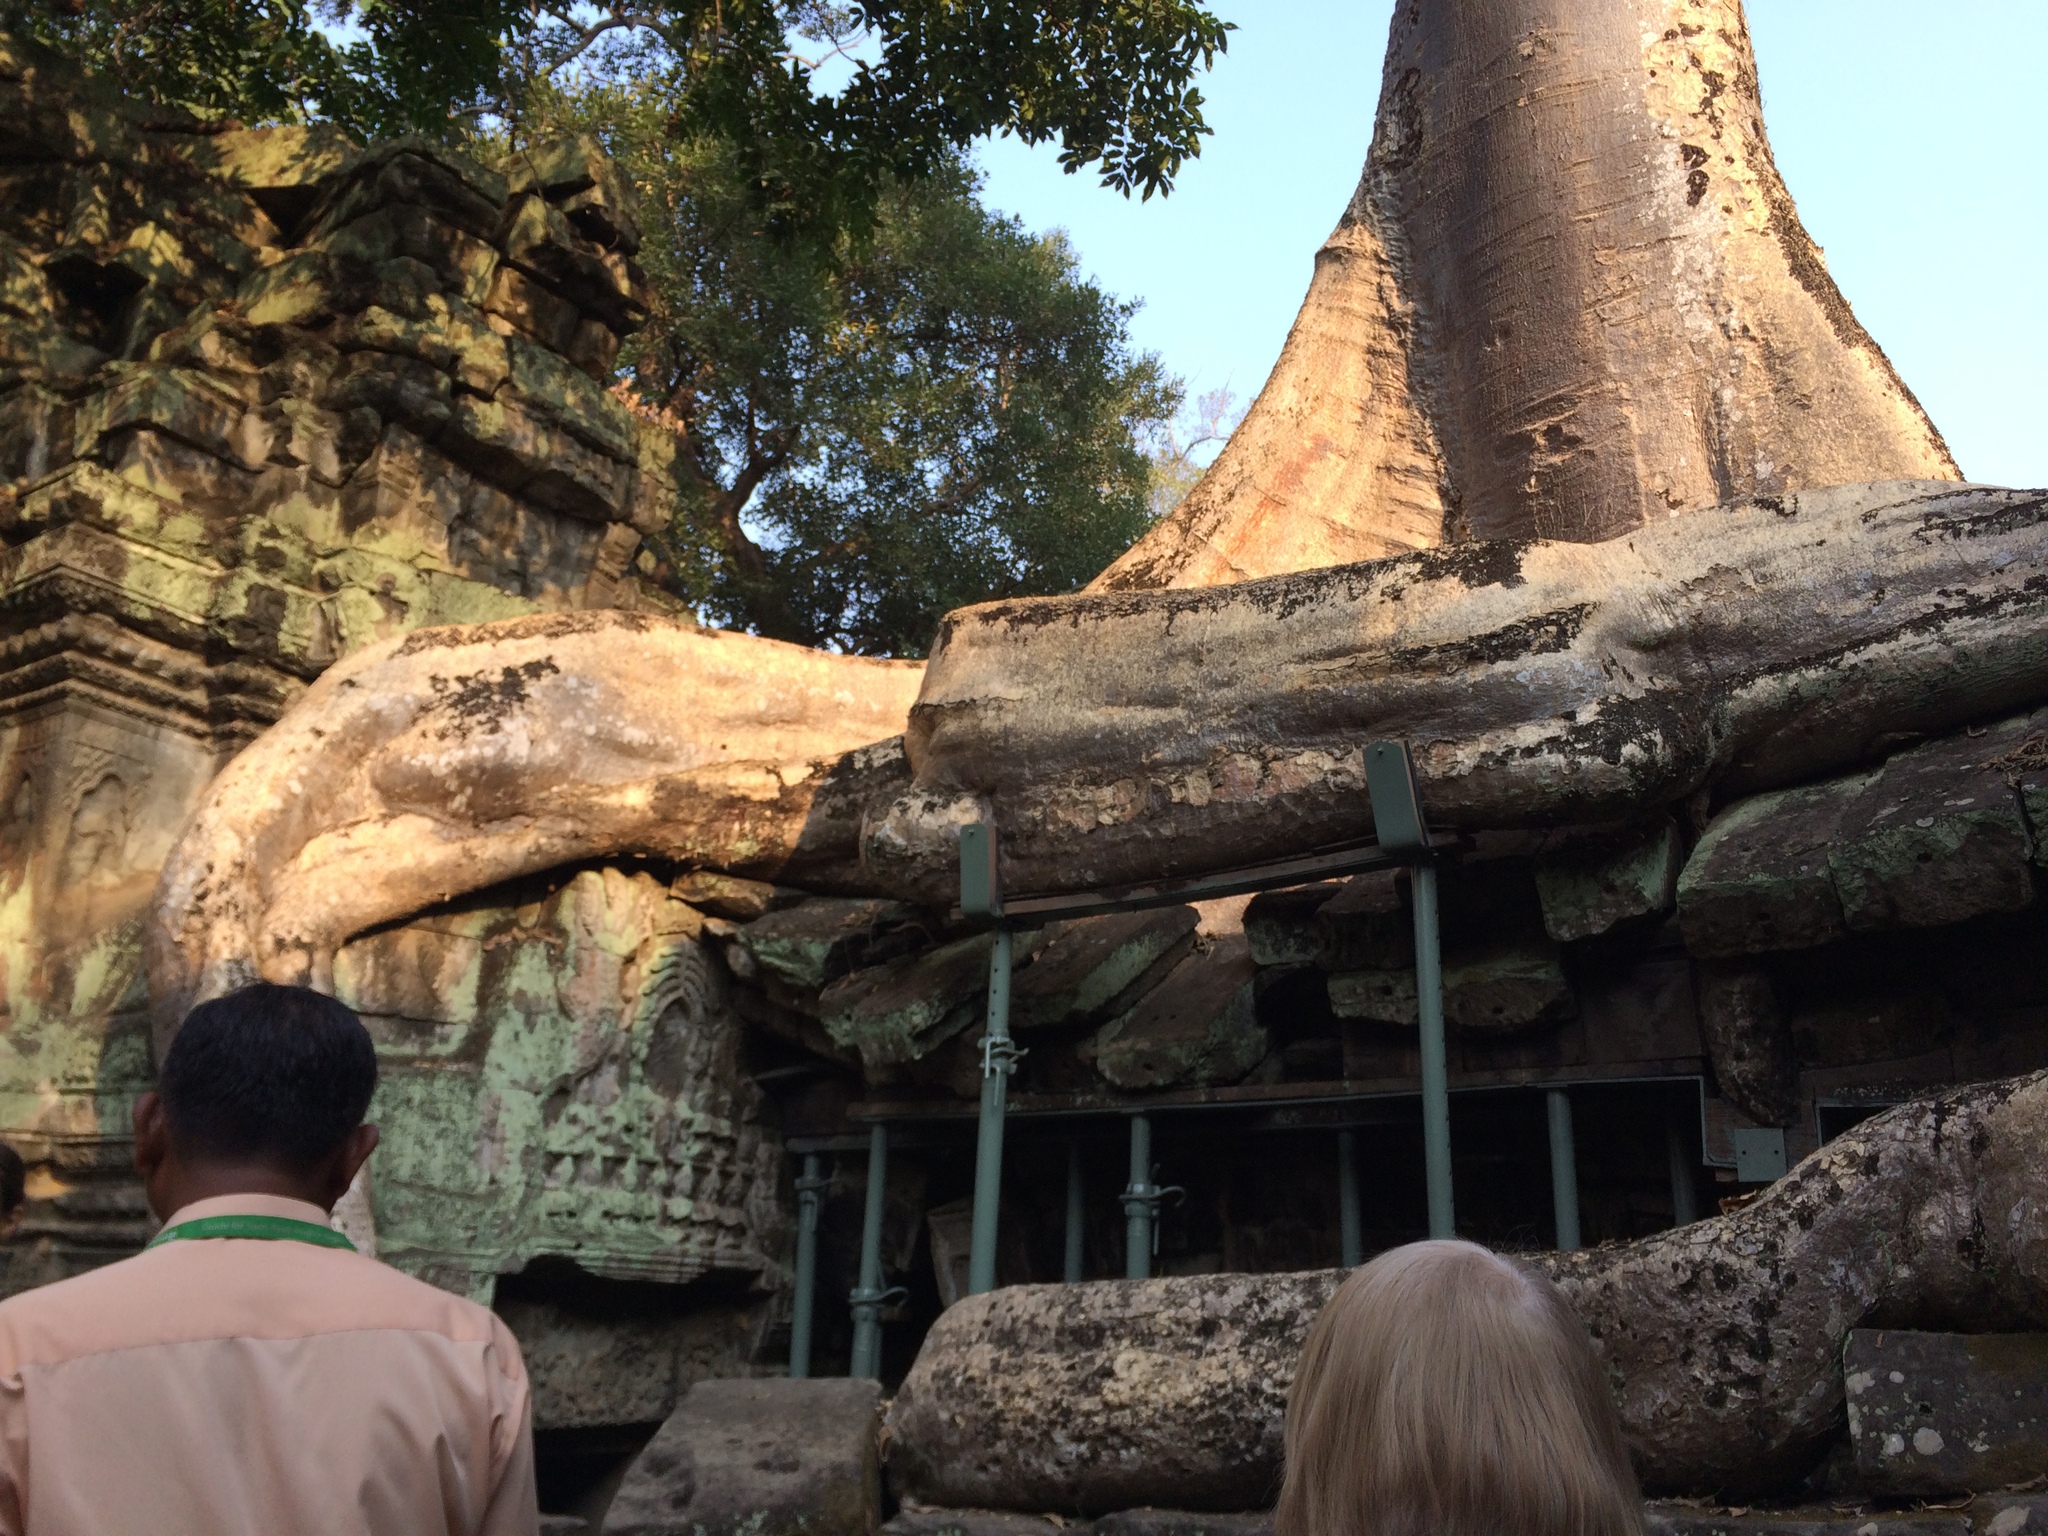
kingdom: Plantae
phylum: Tracheophyta
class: Magnoliopsida
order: Cucurbitales
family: Tetramelaceae
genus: Tetrameles
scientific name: Tetrameles nudiflora
